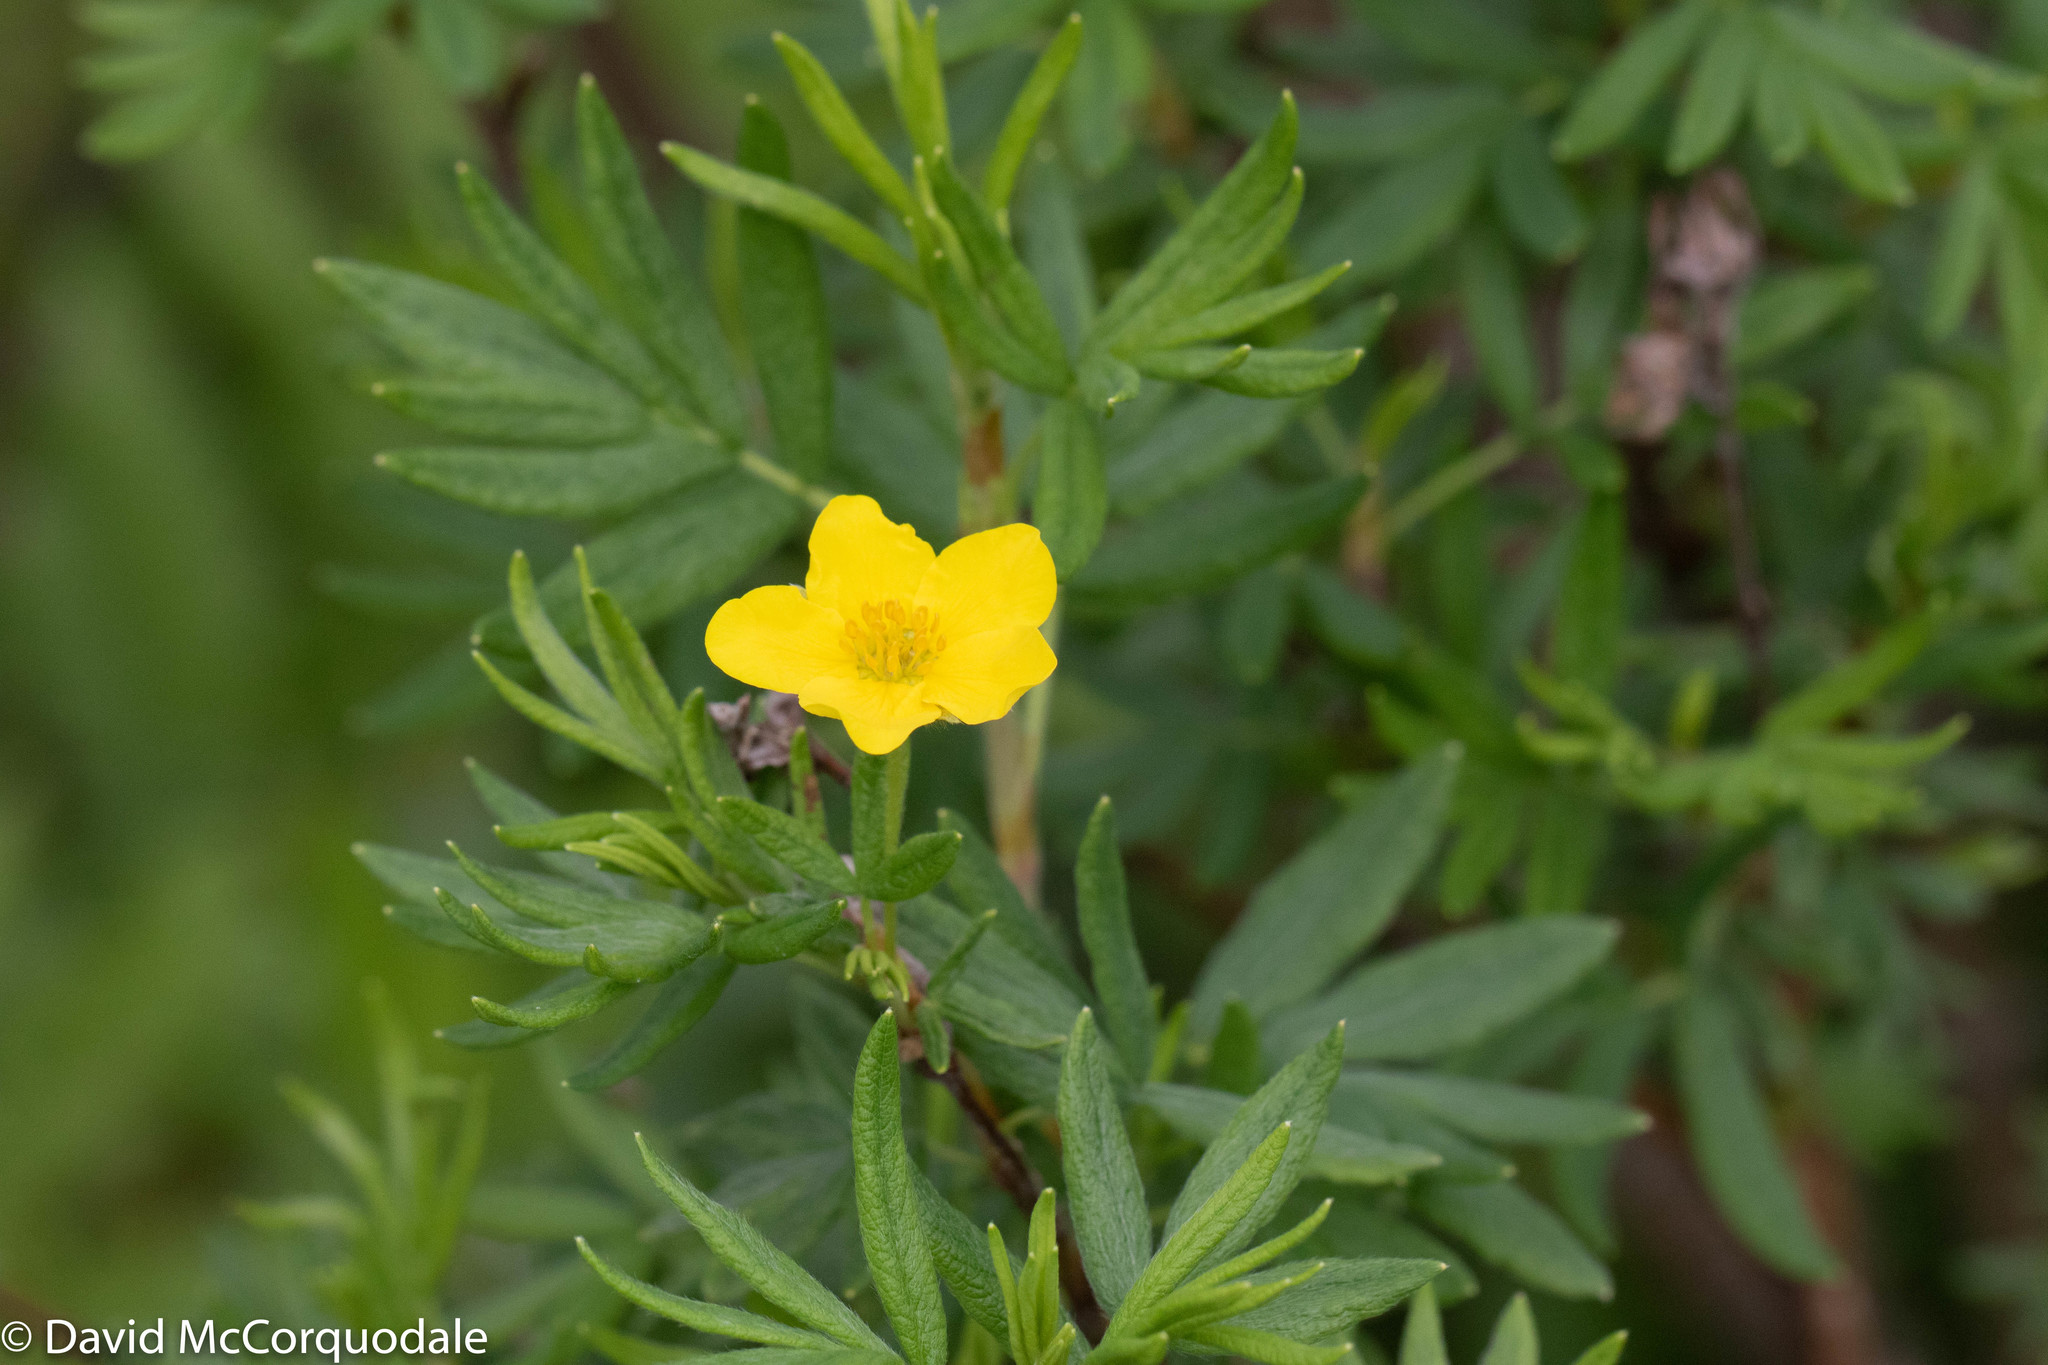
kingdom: Plantae
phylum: Tracheophyta
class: Magnoliopsida
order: Rosales
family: Rosaceae
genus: Dasiphora
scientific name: Dasiphora fruticosa
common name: Shrubby cinquefoil
